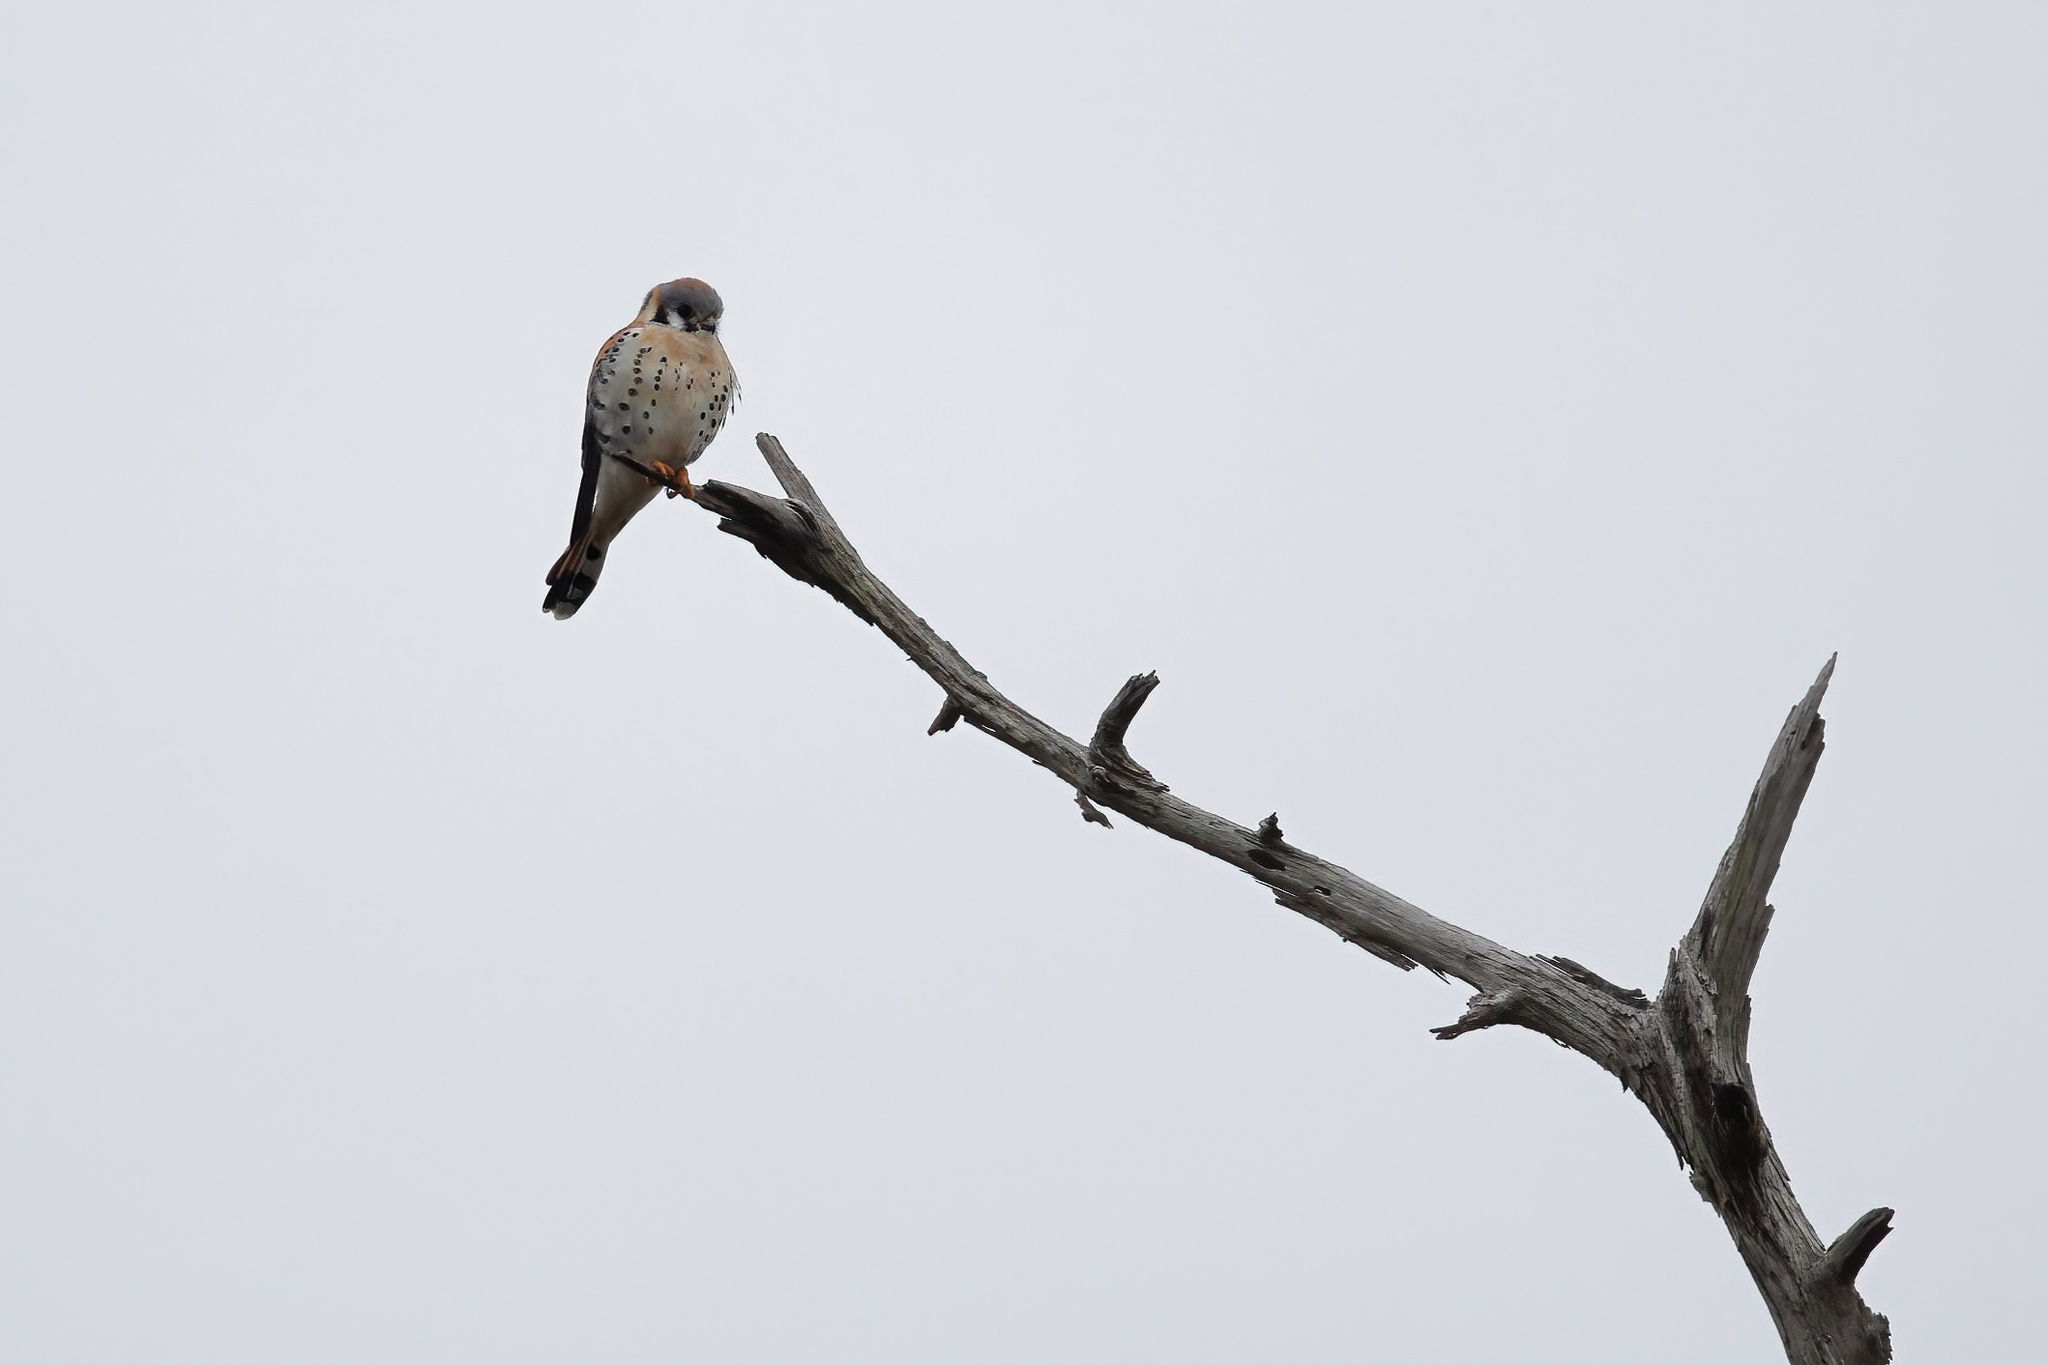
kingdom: Animalia
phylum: Chordata
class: Aves
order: Falconiformes
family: Falconidae
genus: Falco
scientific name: Falco sparverius
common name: American kestrel
